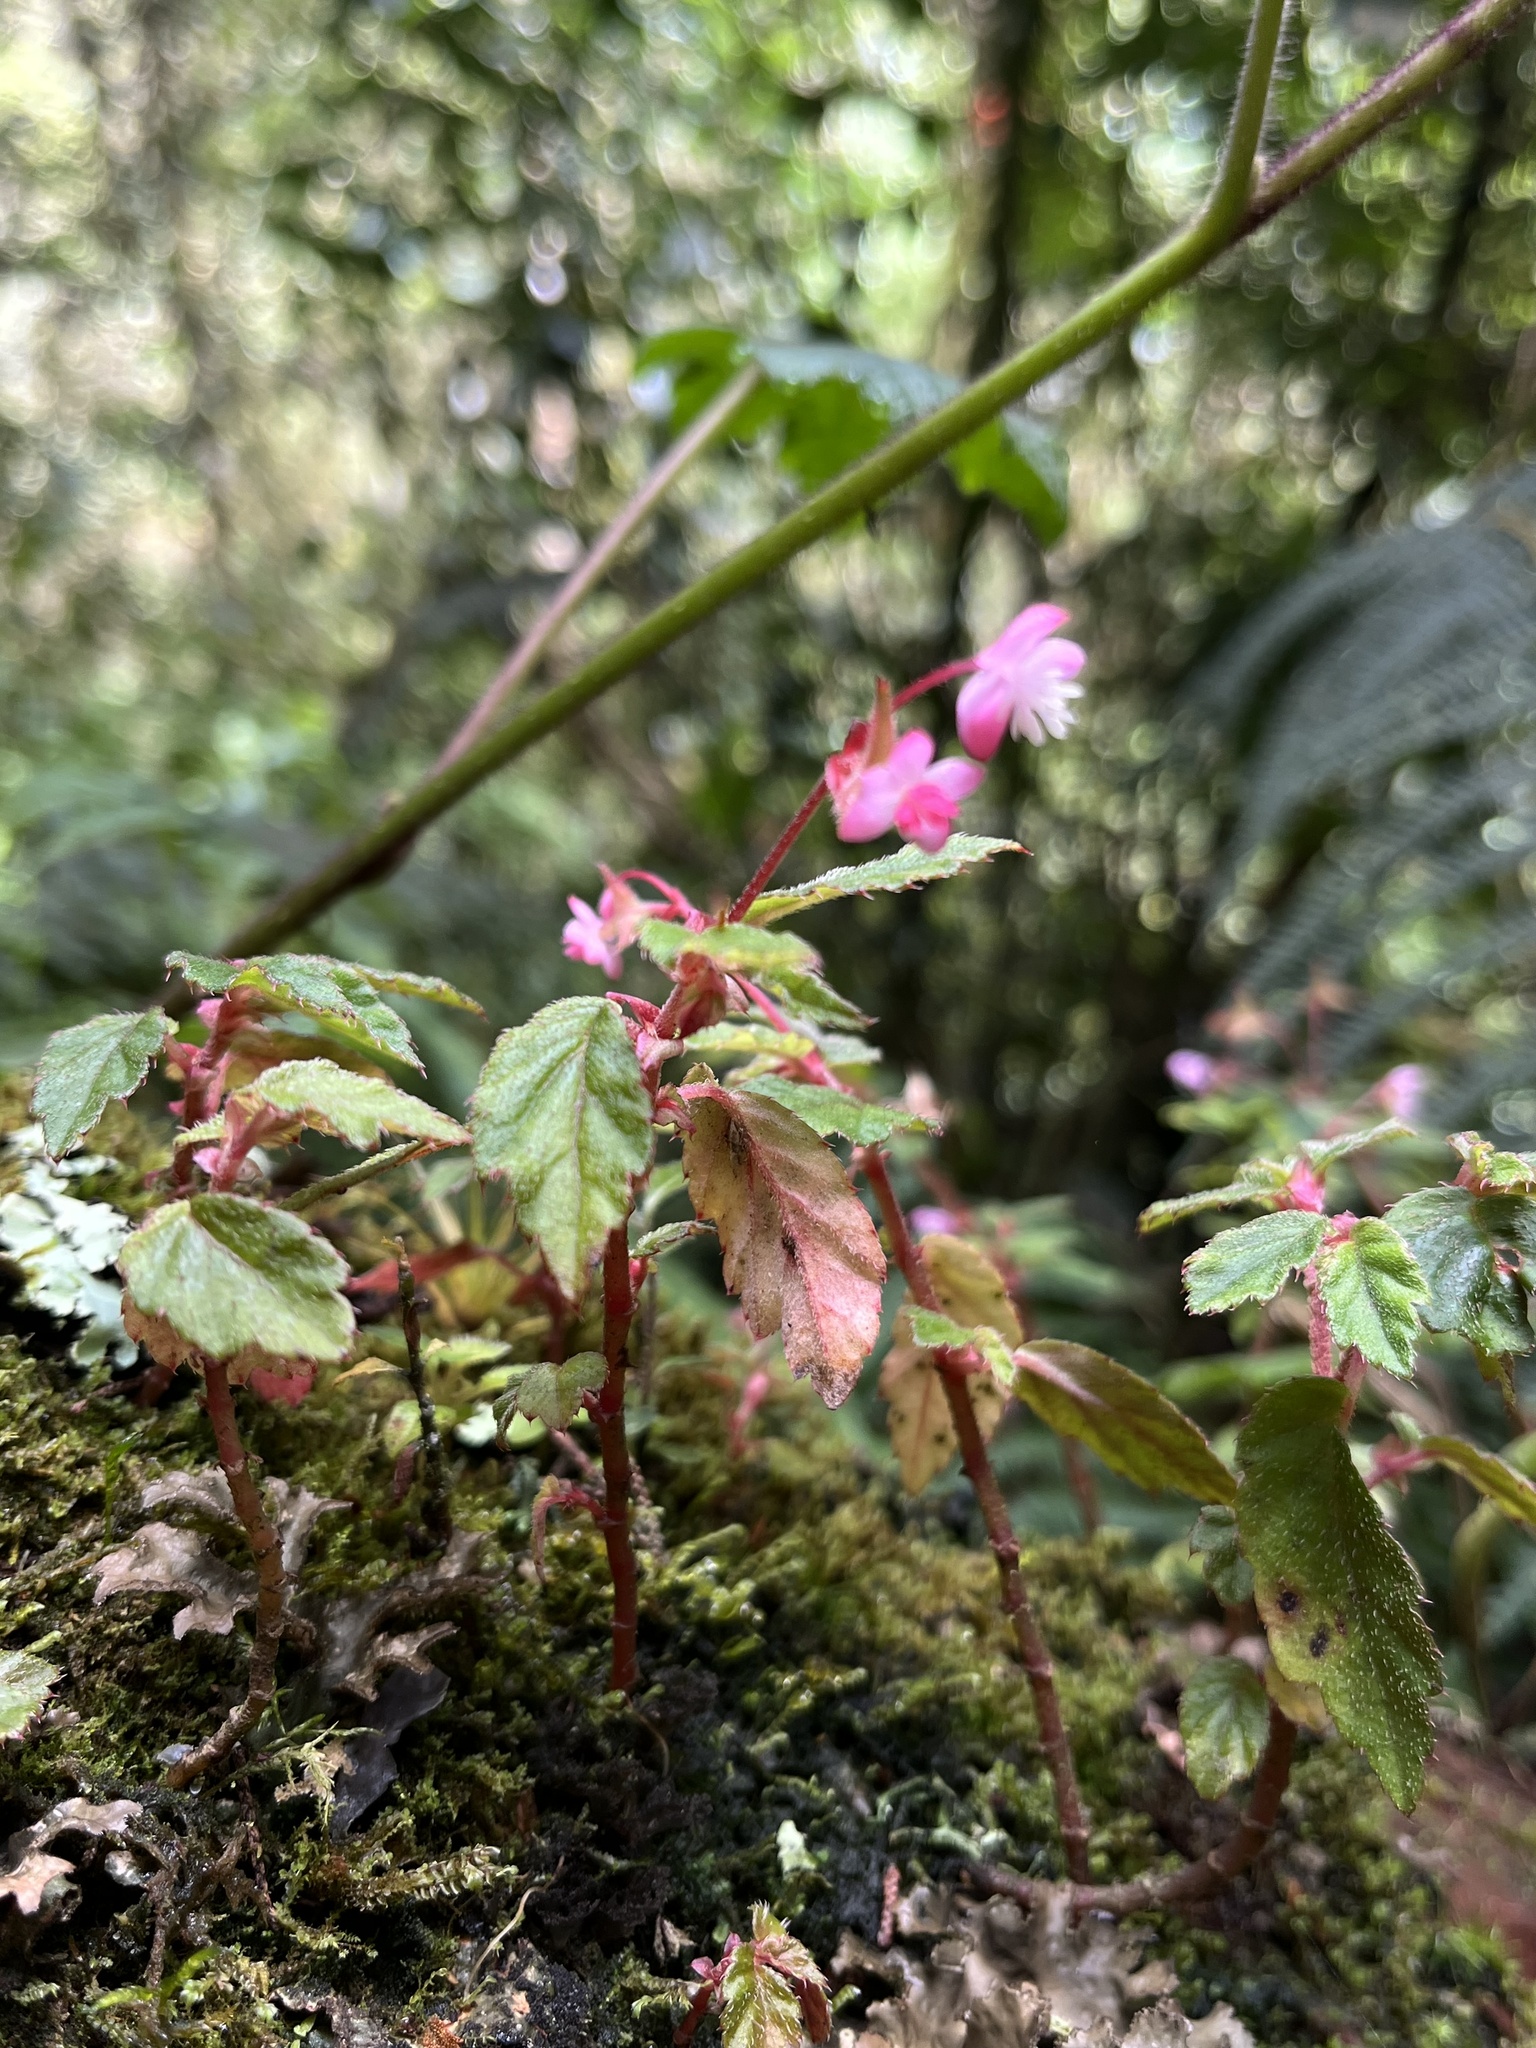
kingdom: Plantae
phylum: Tracheophyta
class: Magnoliopsida
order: Cucurbitales
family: Begoniaceae
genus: Begonia
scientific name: Begonia urticae
